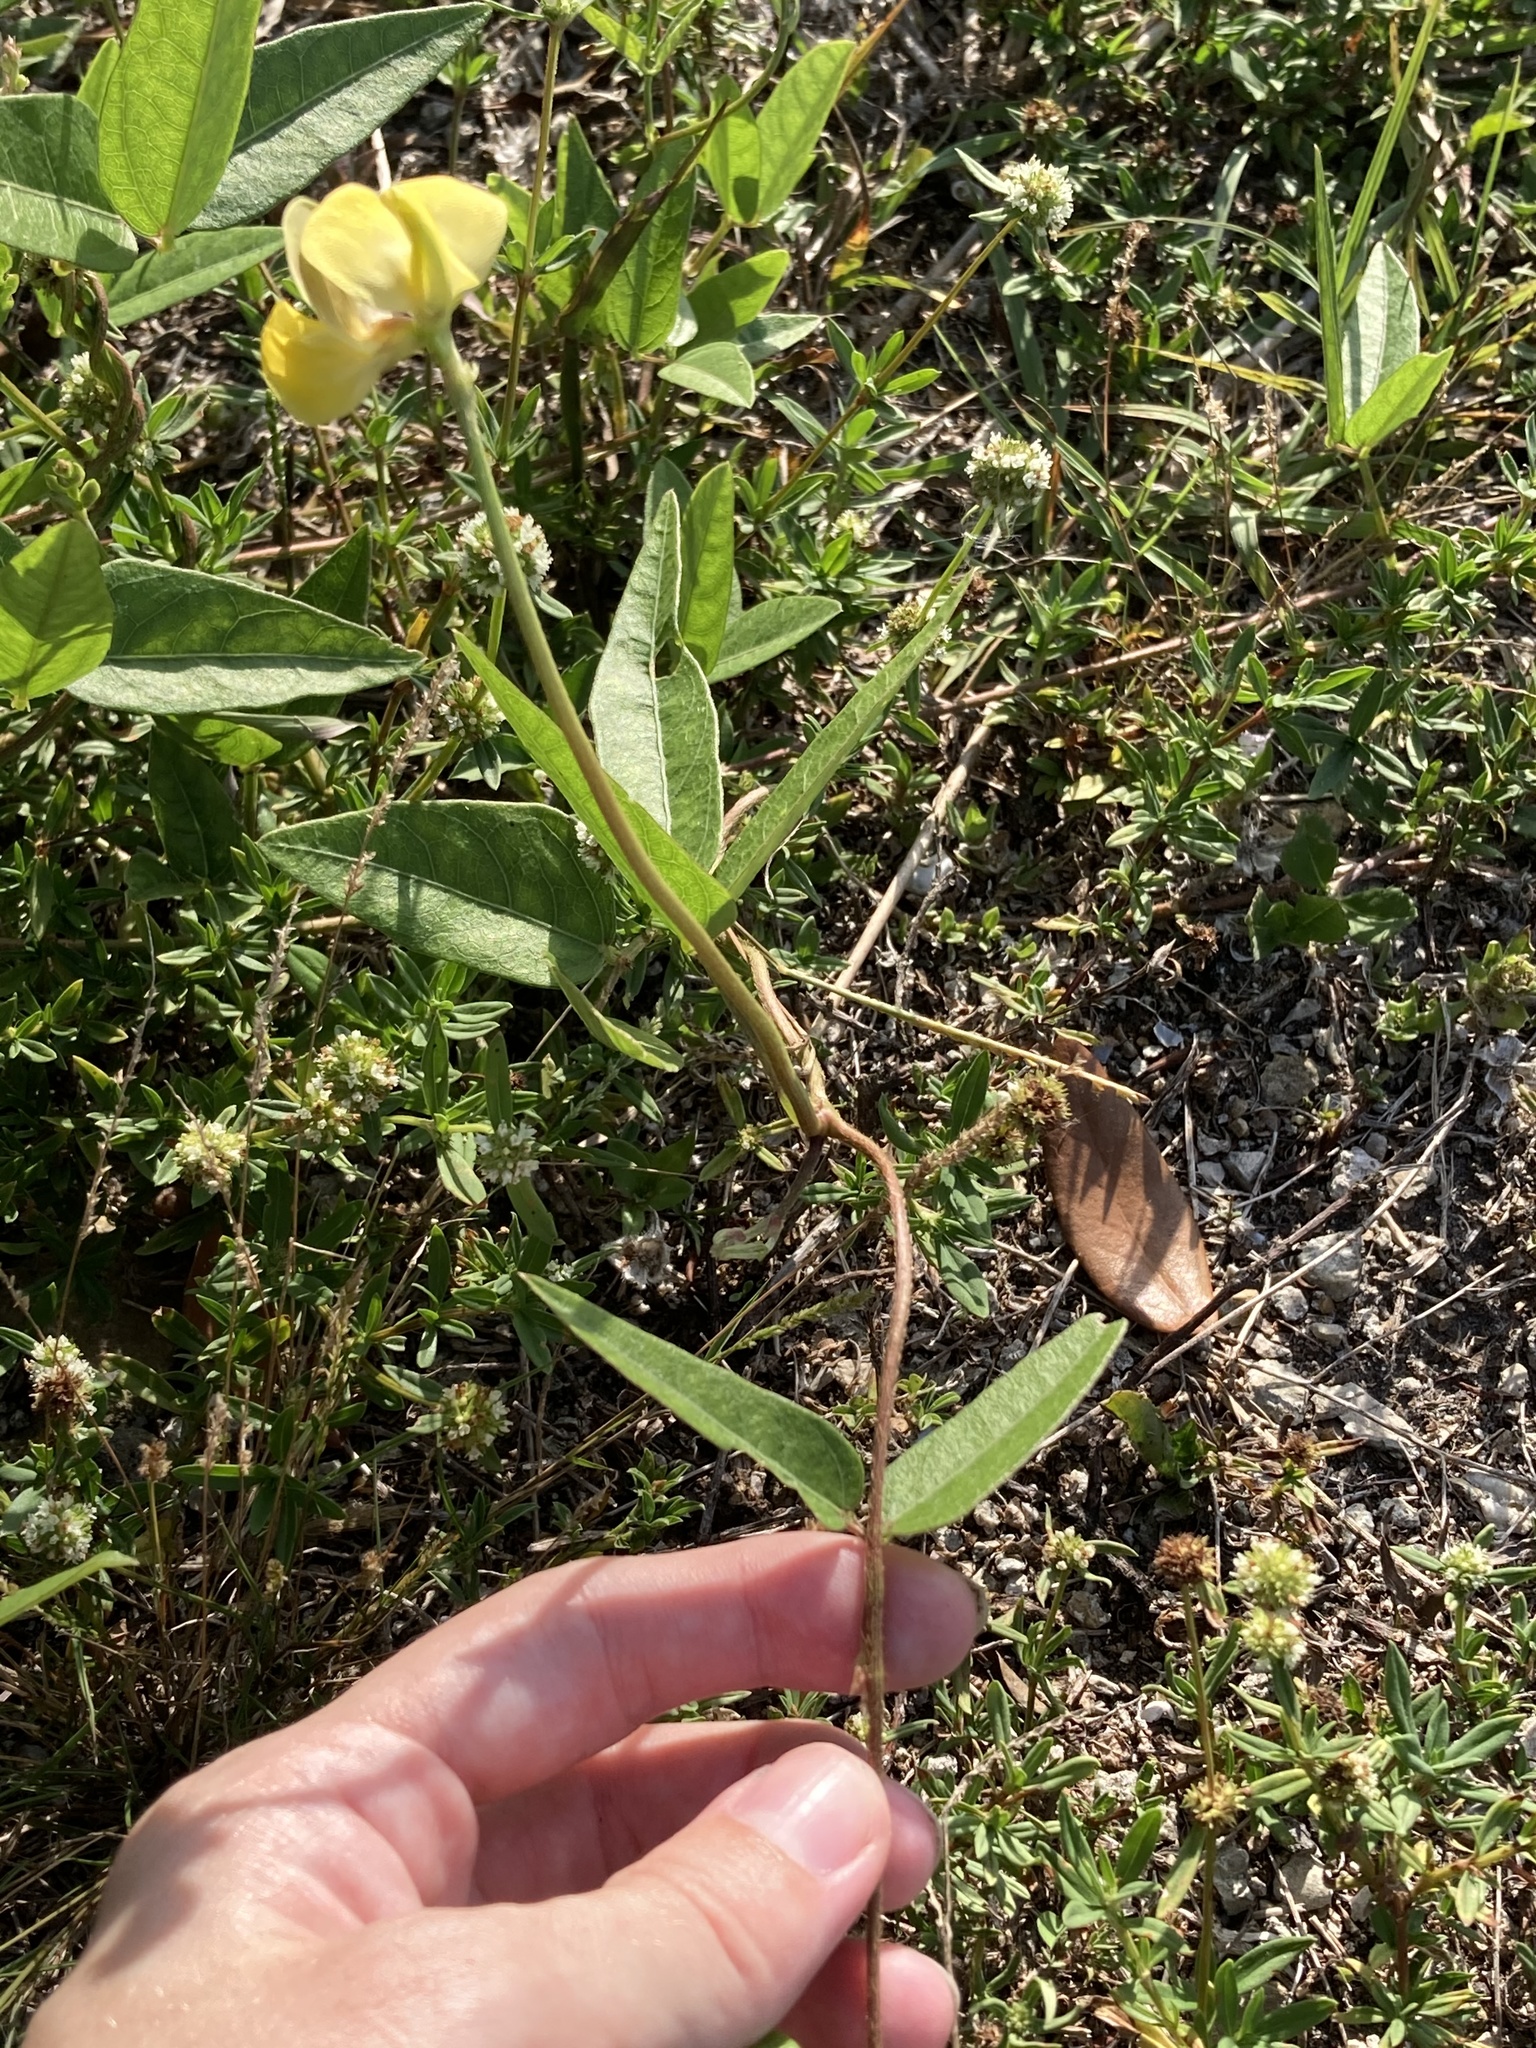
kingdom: Plantae
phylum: Tracheophyta
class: Magnoliopsida
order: Fabales
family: Fabaceae
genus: Vigna
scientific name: Vigna luteola
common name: Hairypod cowpea
